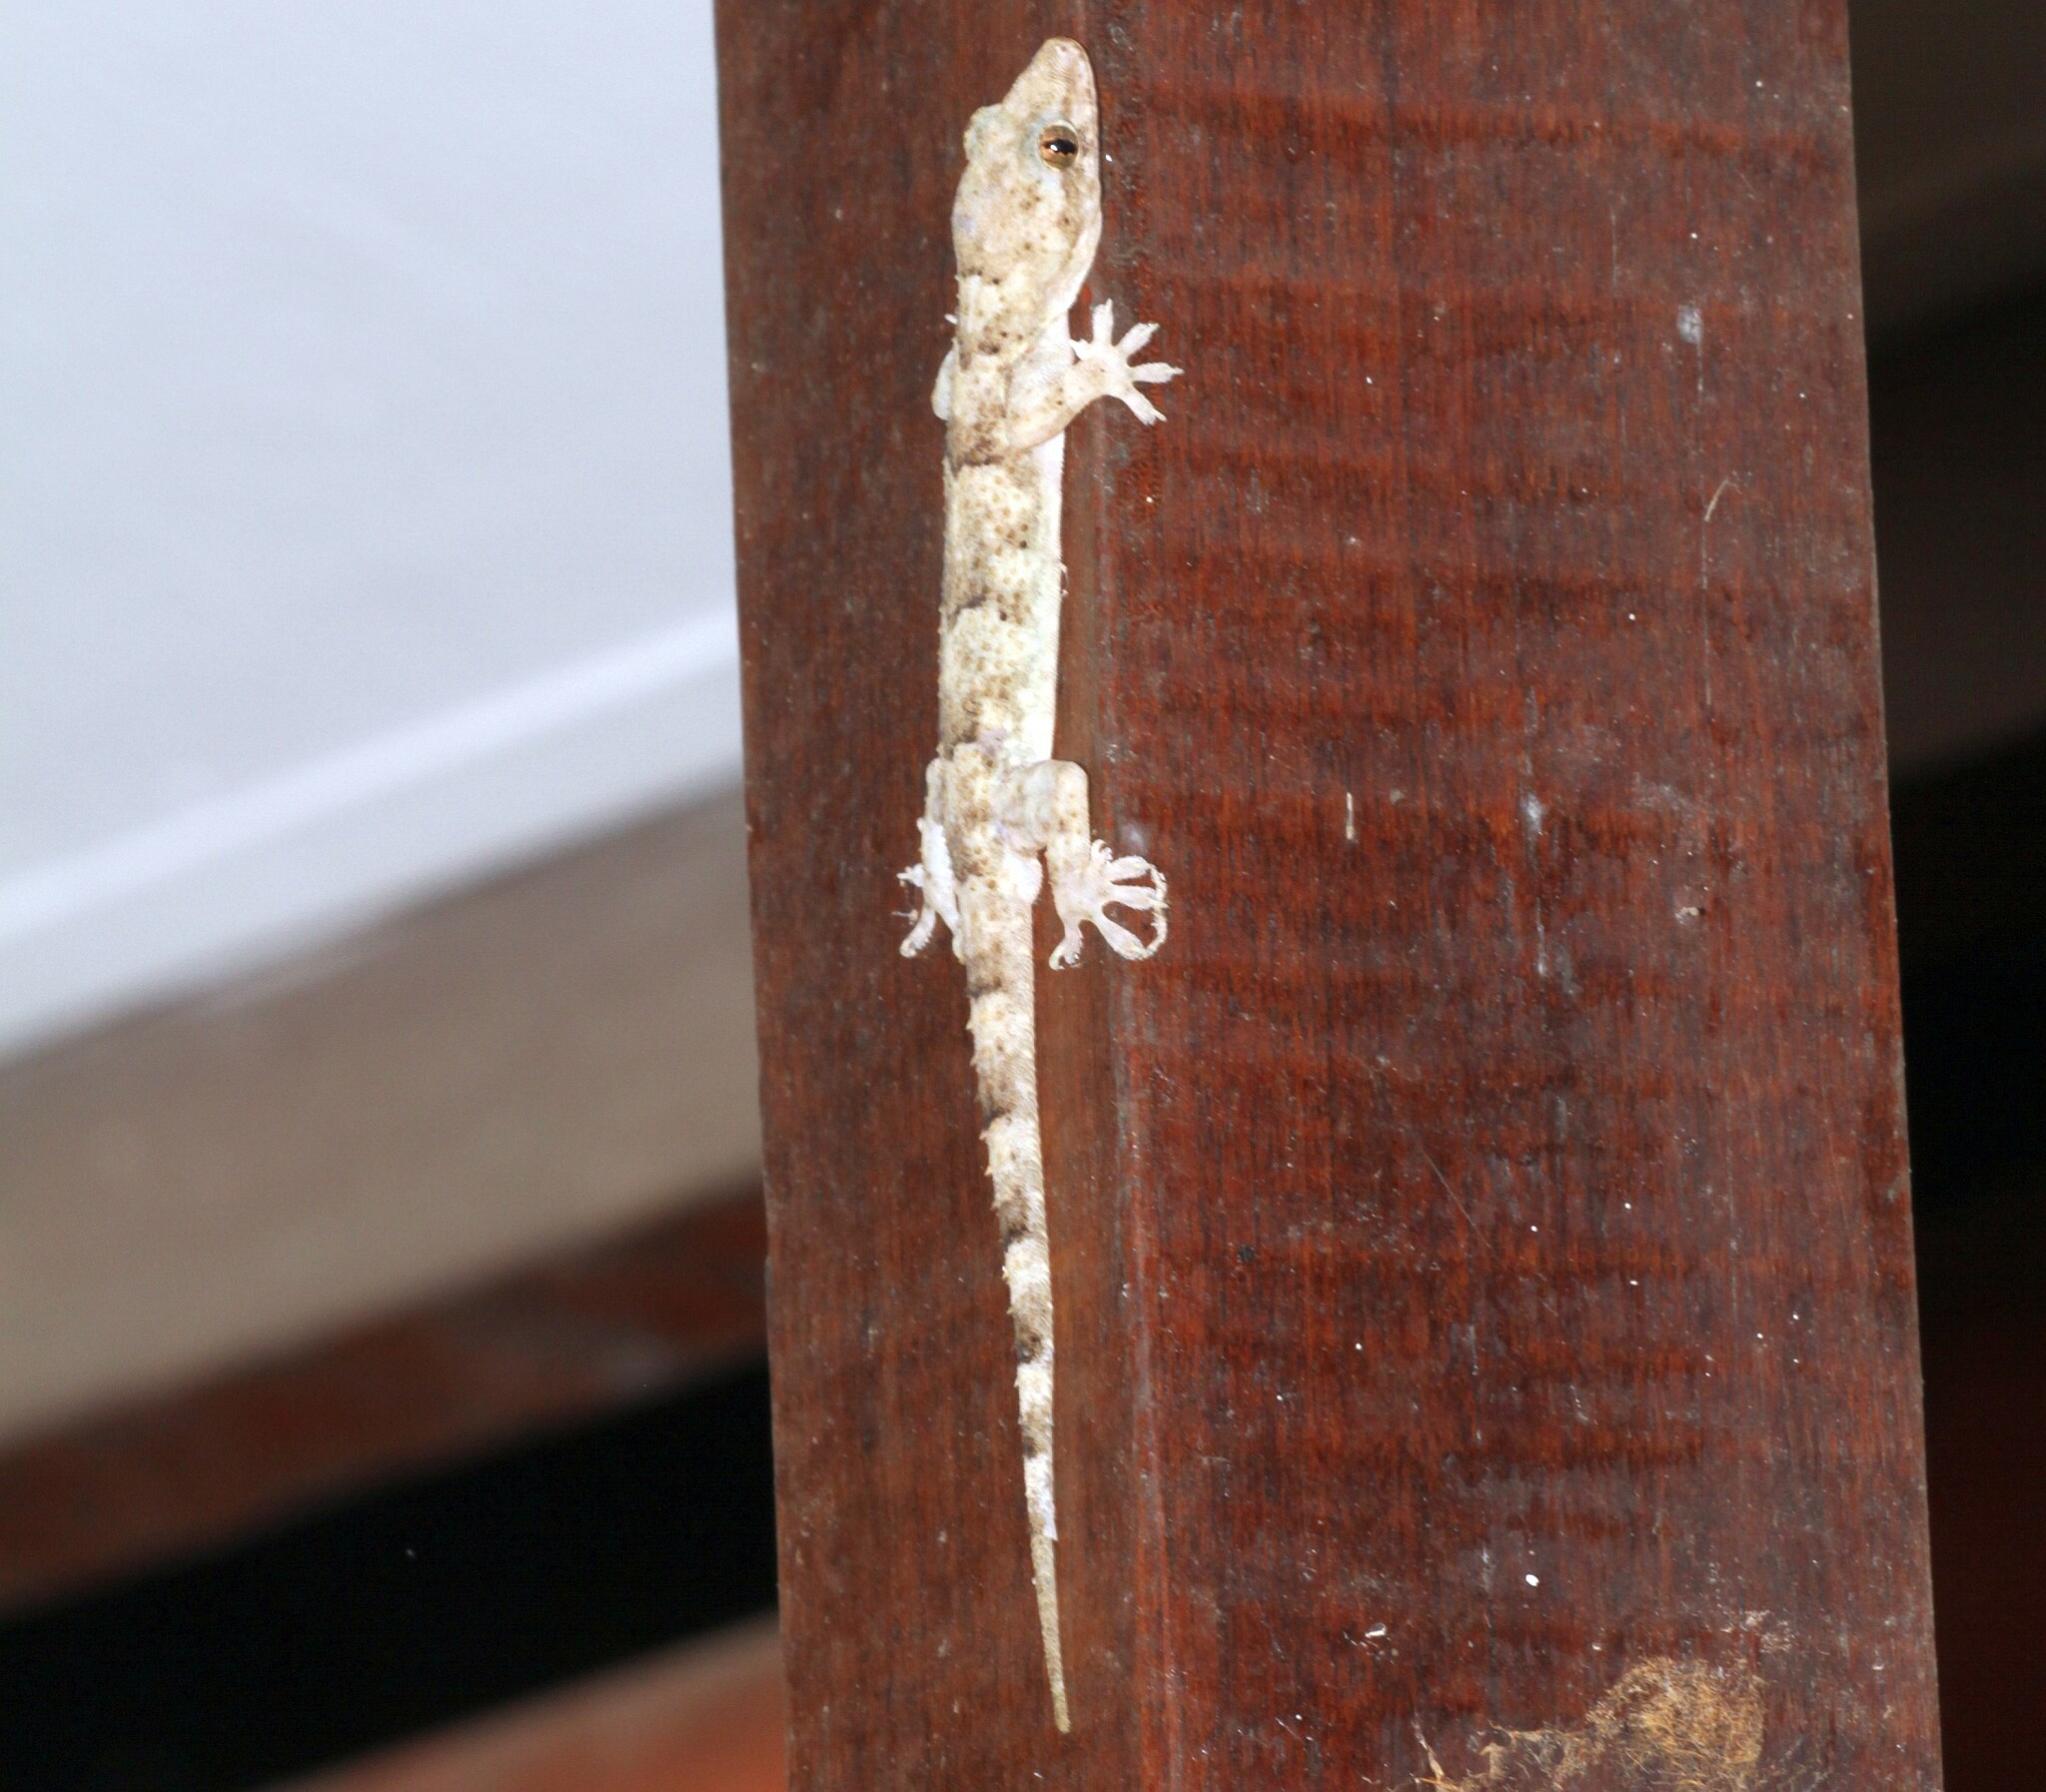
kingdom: Animalia
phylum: Chordata
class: Squamata
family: Gekkonidae
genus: Hemidactylus
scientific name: Hemidactylus mabouia
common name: House gecko
